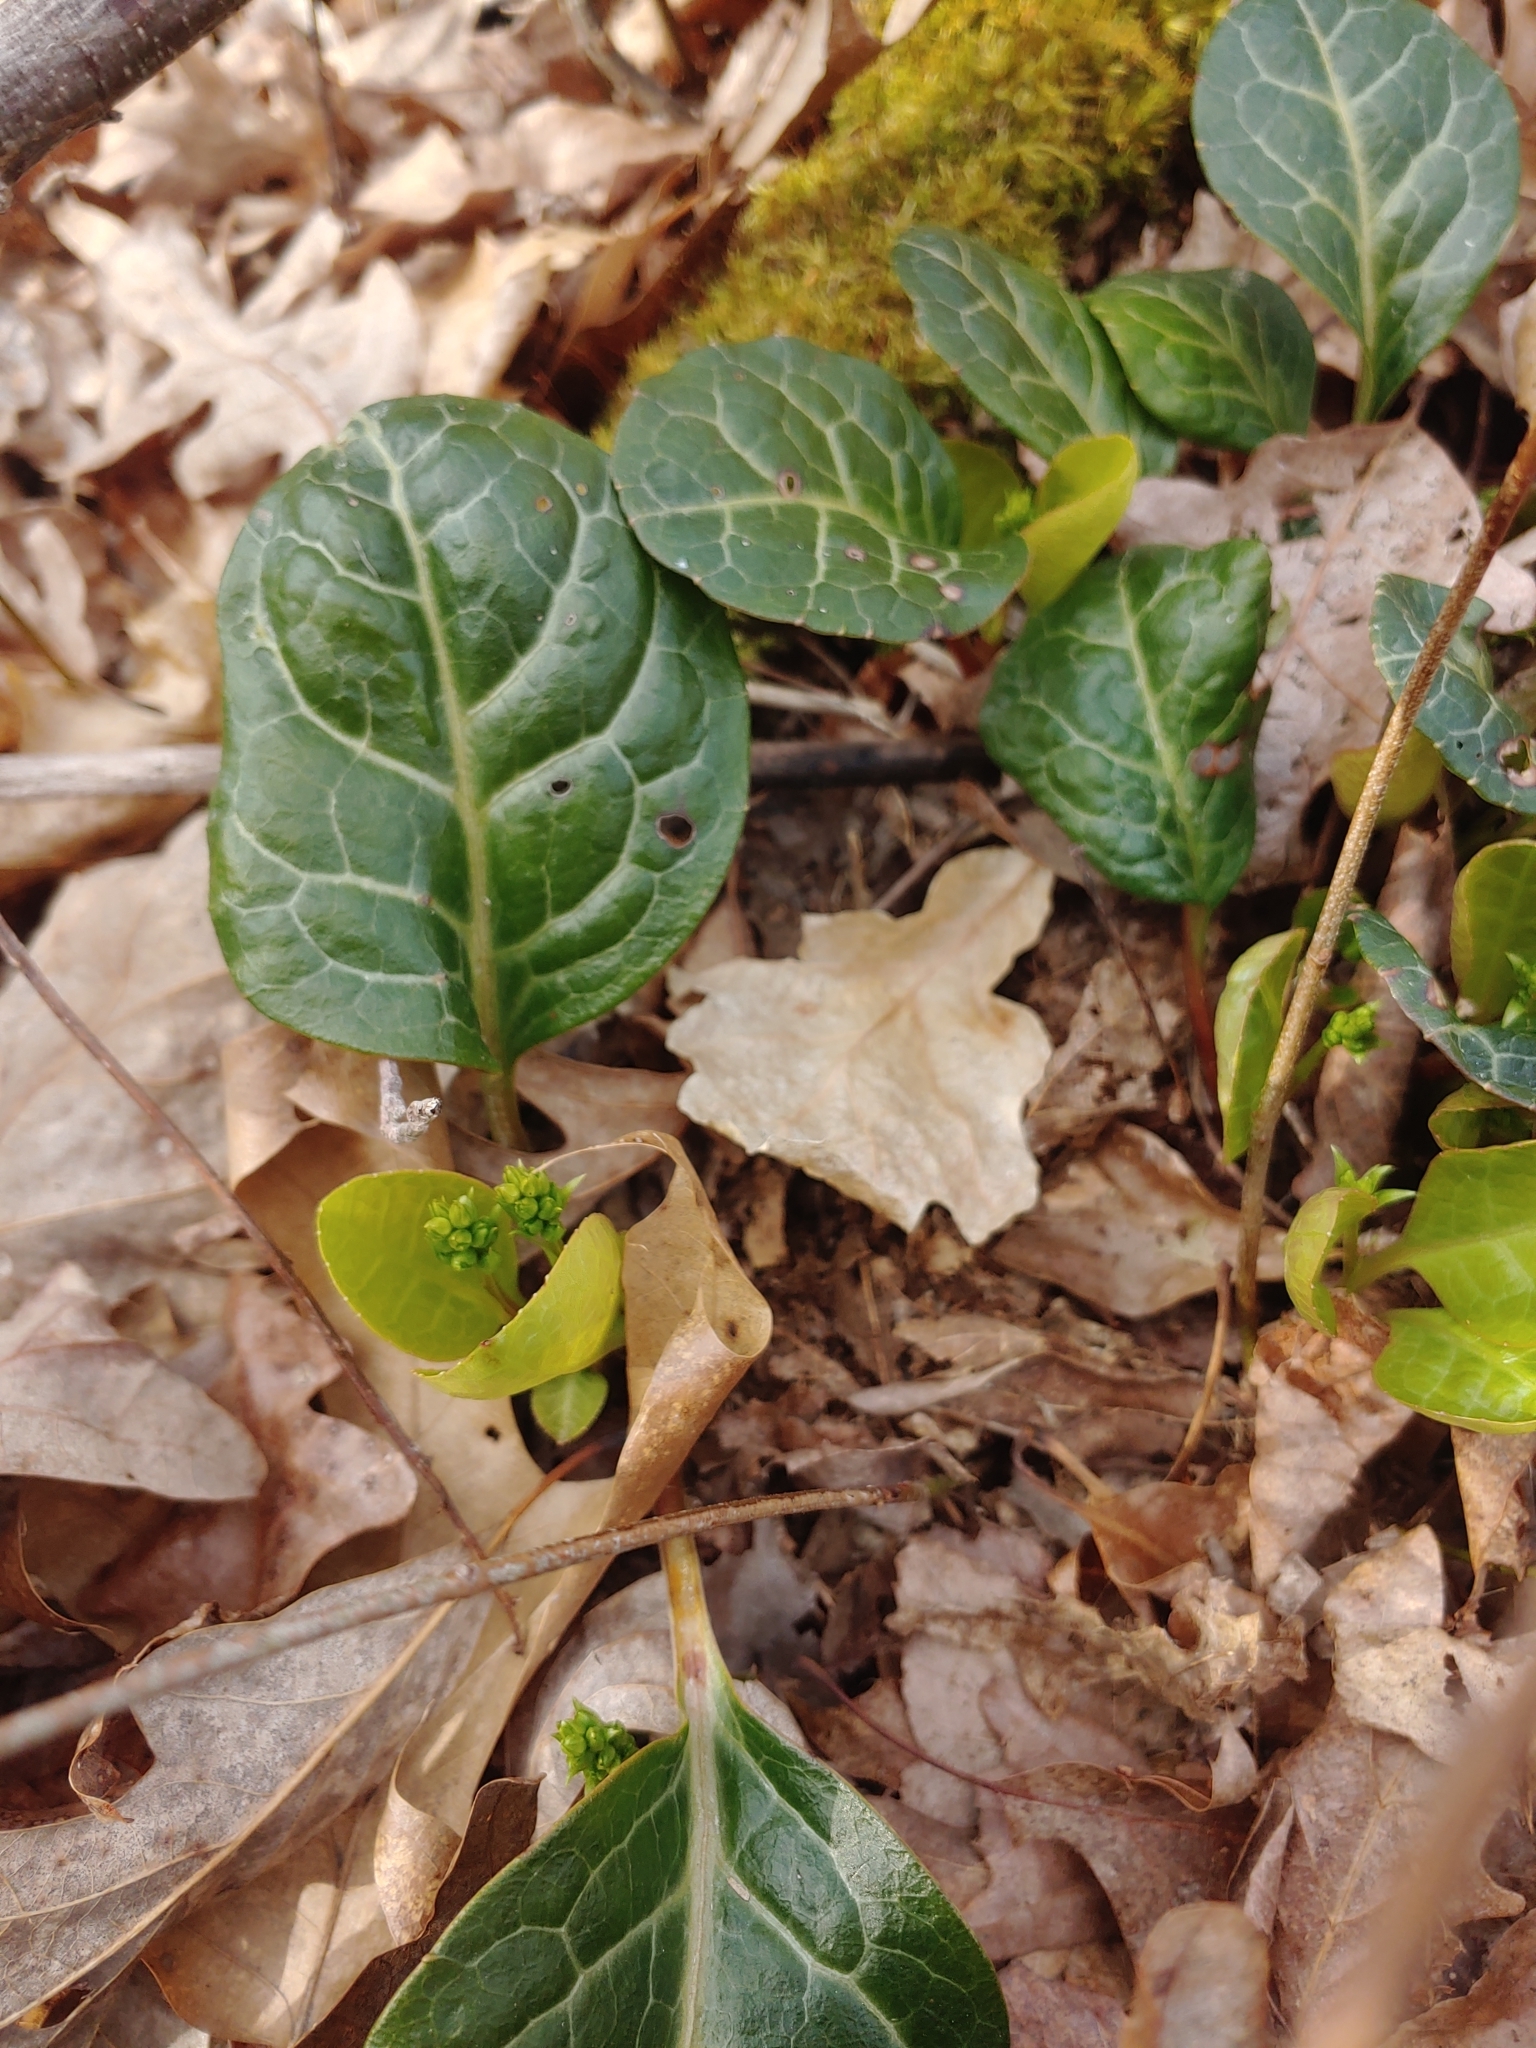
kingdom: Plantae
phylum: Tracheophyta
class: Magnoliopsida
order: Ericales
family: Ericaceae
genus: Pyrola
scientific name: Pyrola americana
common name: American wintergreen
